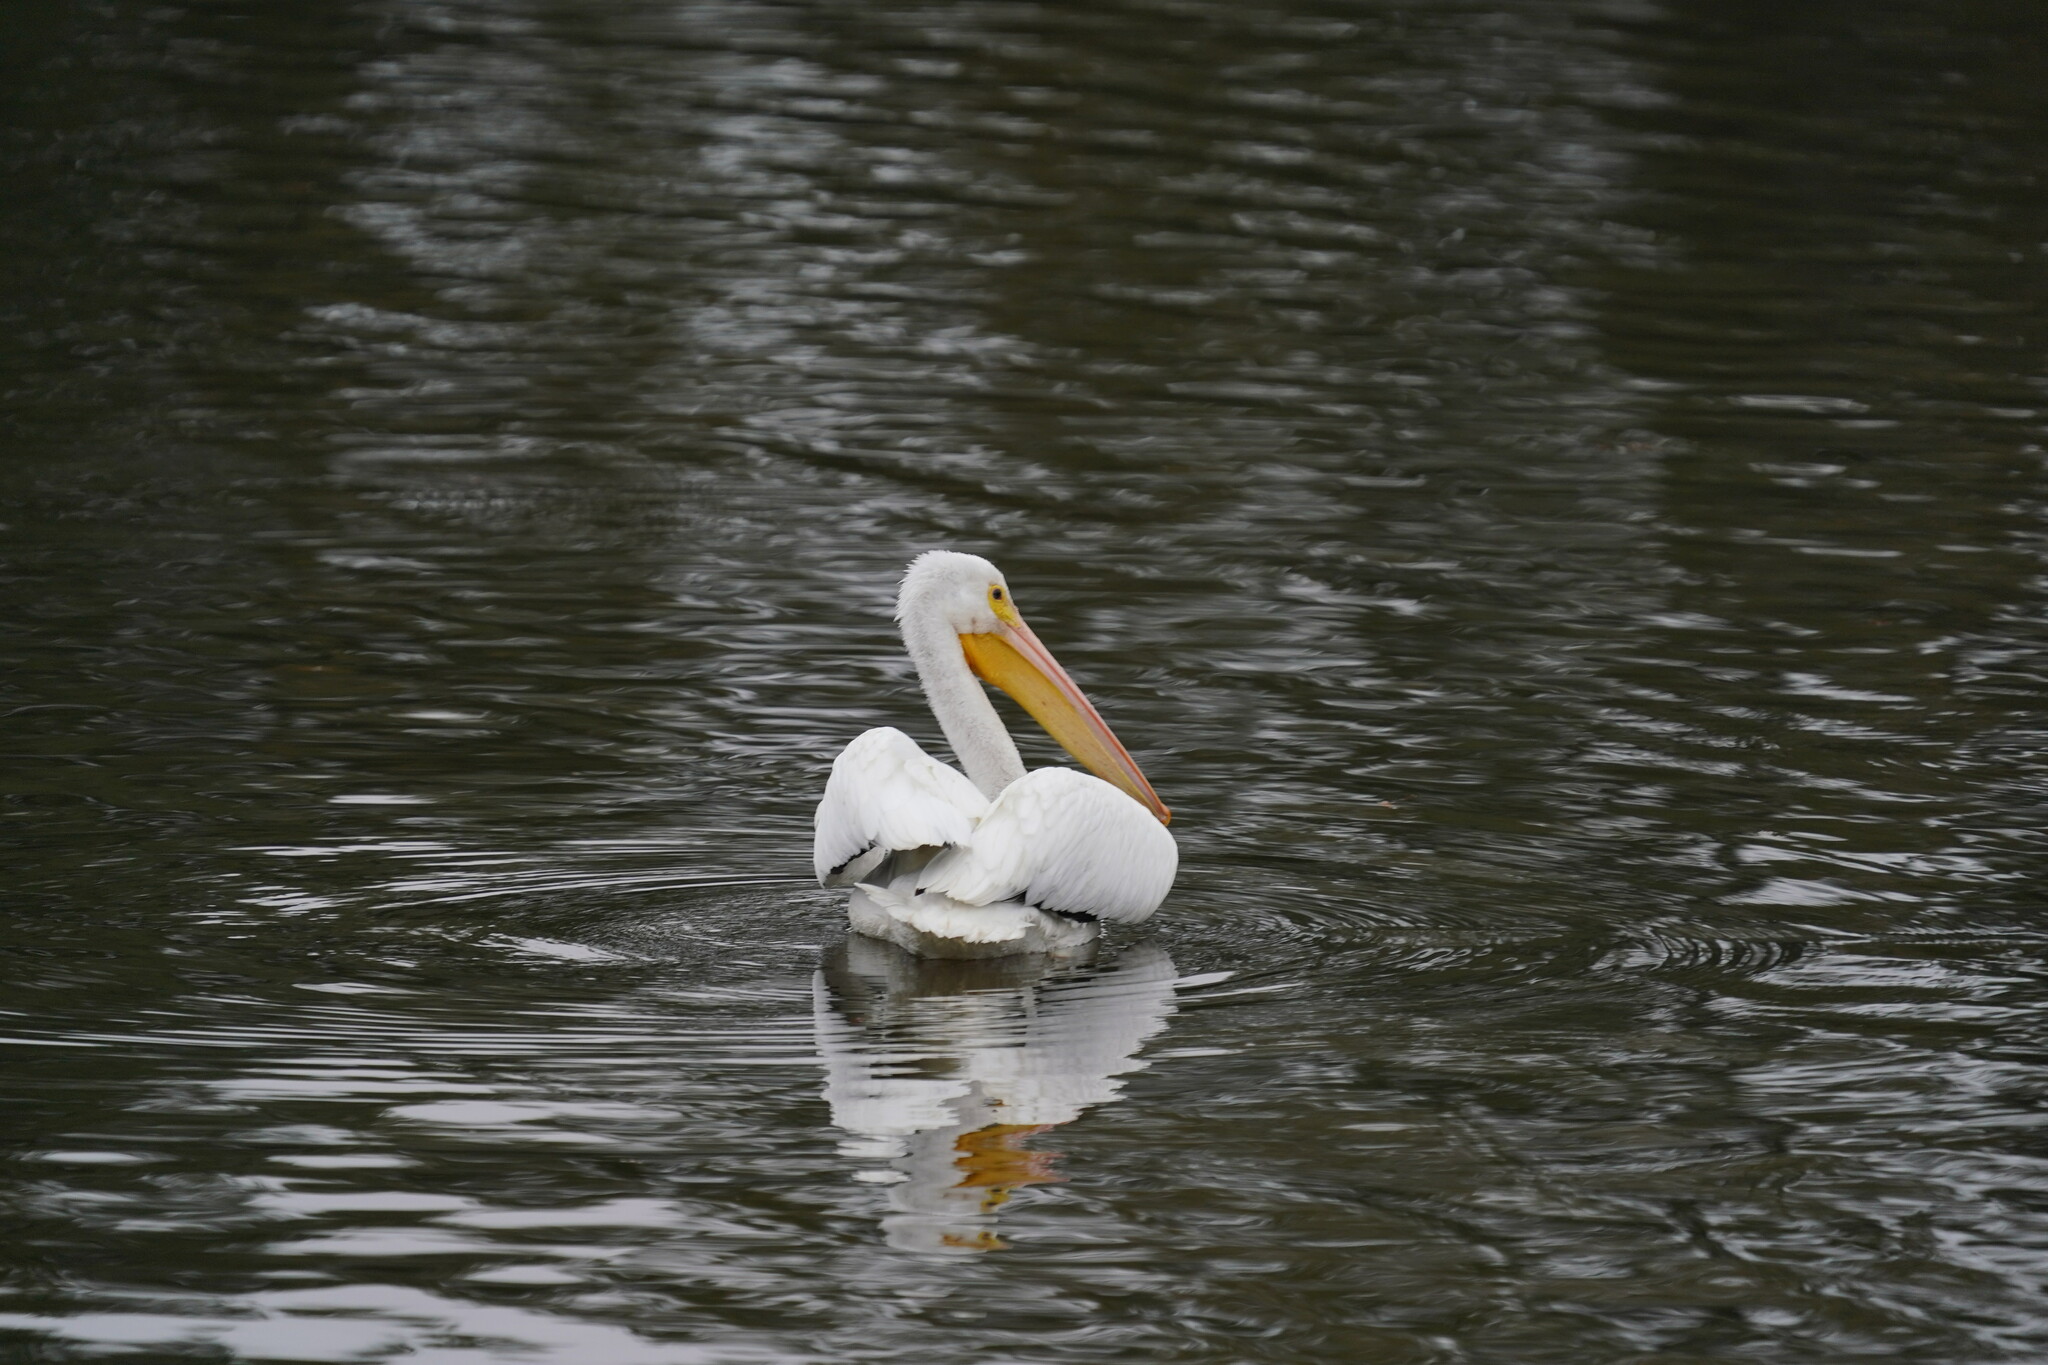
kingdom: Animalia
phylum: Chordata
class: Aves
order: Pelecaniformes
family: Pelecanidae
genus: Pelecanus
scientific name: Pelecanus erythrorhynchos
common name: American white pelican
